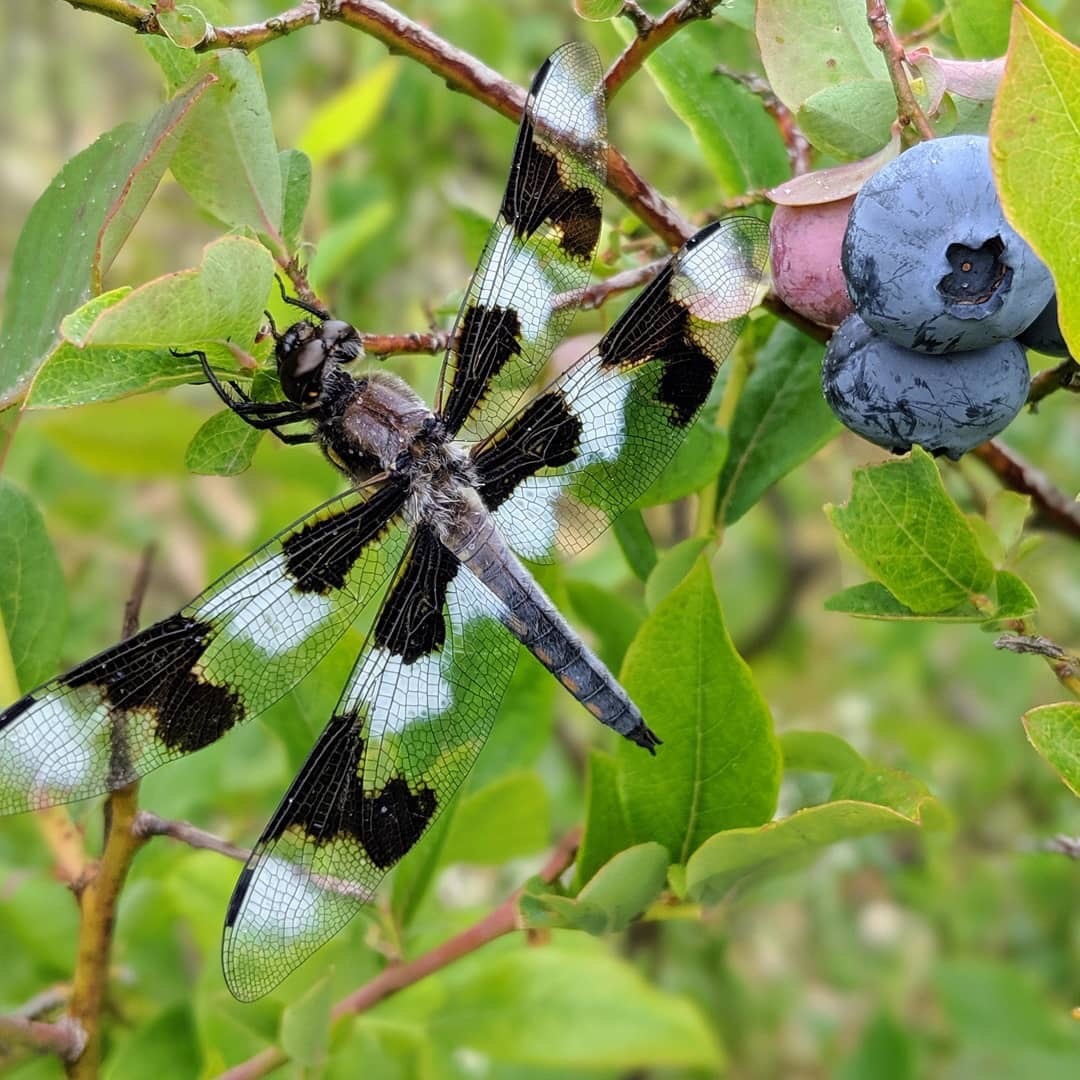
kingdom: Animalia
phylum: Arthropoda
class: Insecta
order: Odonata
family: Libellulidae
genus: Libellula
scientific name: Libellula forensis
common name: Eight-spotted skimmer
